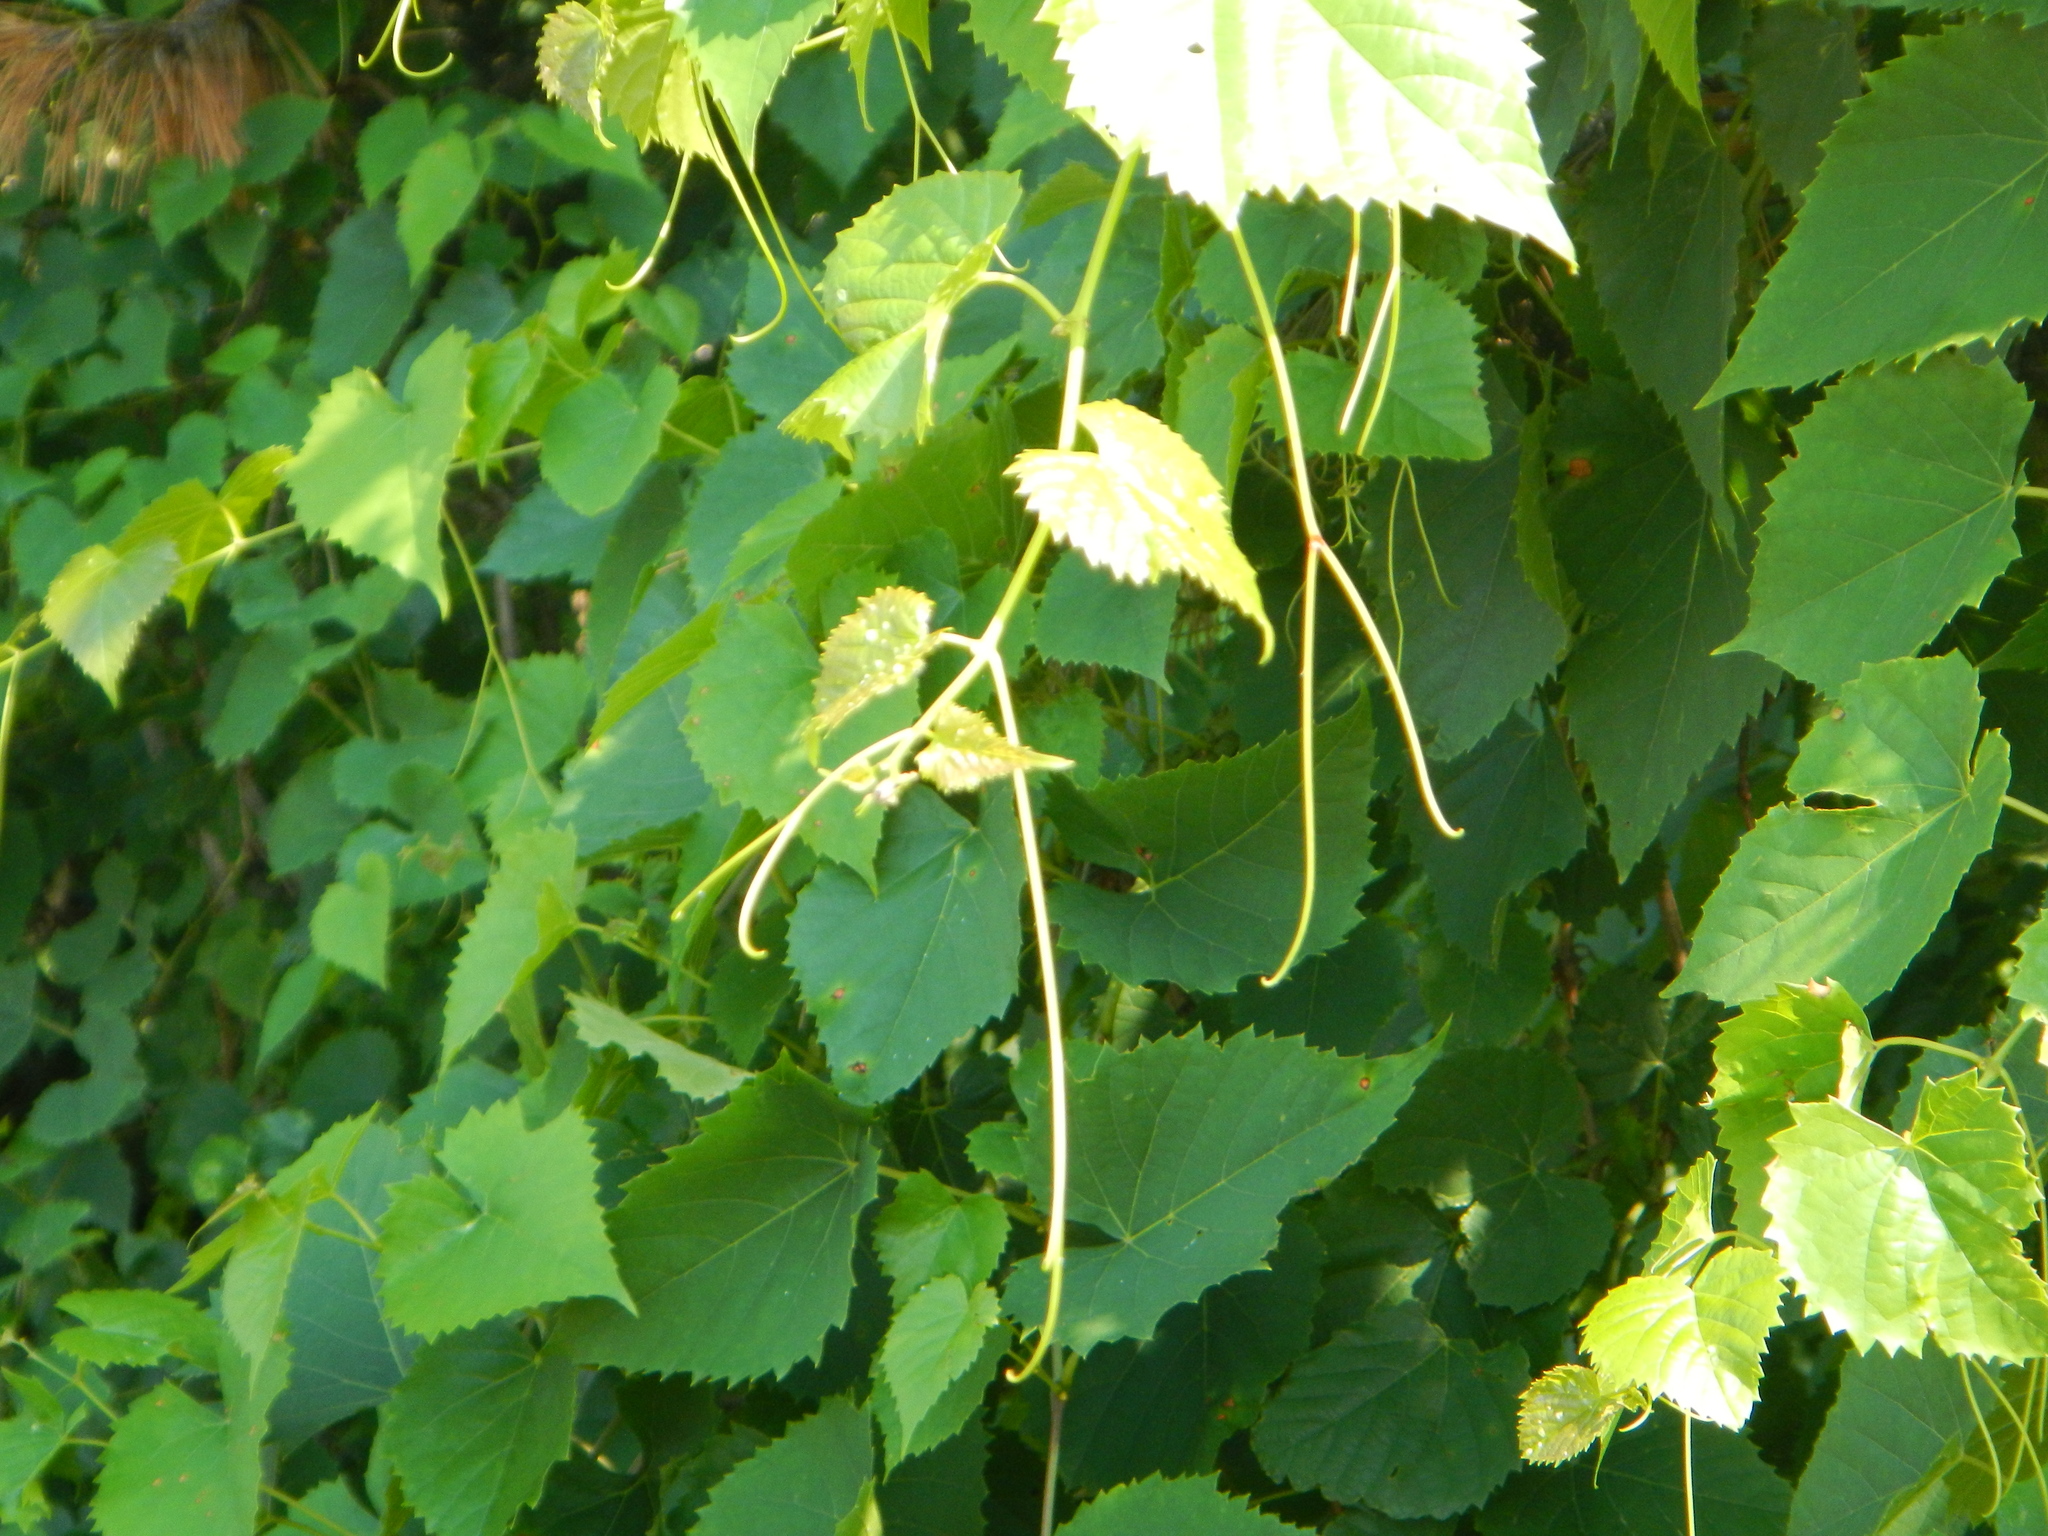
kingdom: Plantae
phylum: Tracheophyta
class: Magnoliopsida
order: Vitales
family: Vitaceae
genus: Vitis
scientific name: Vitis cinerea
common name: Ashy grape
